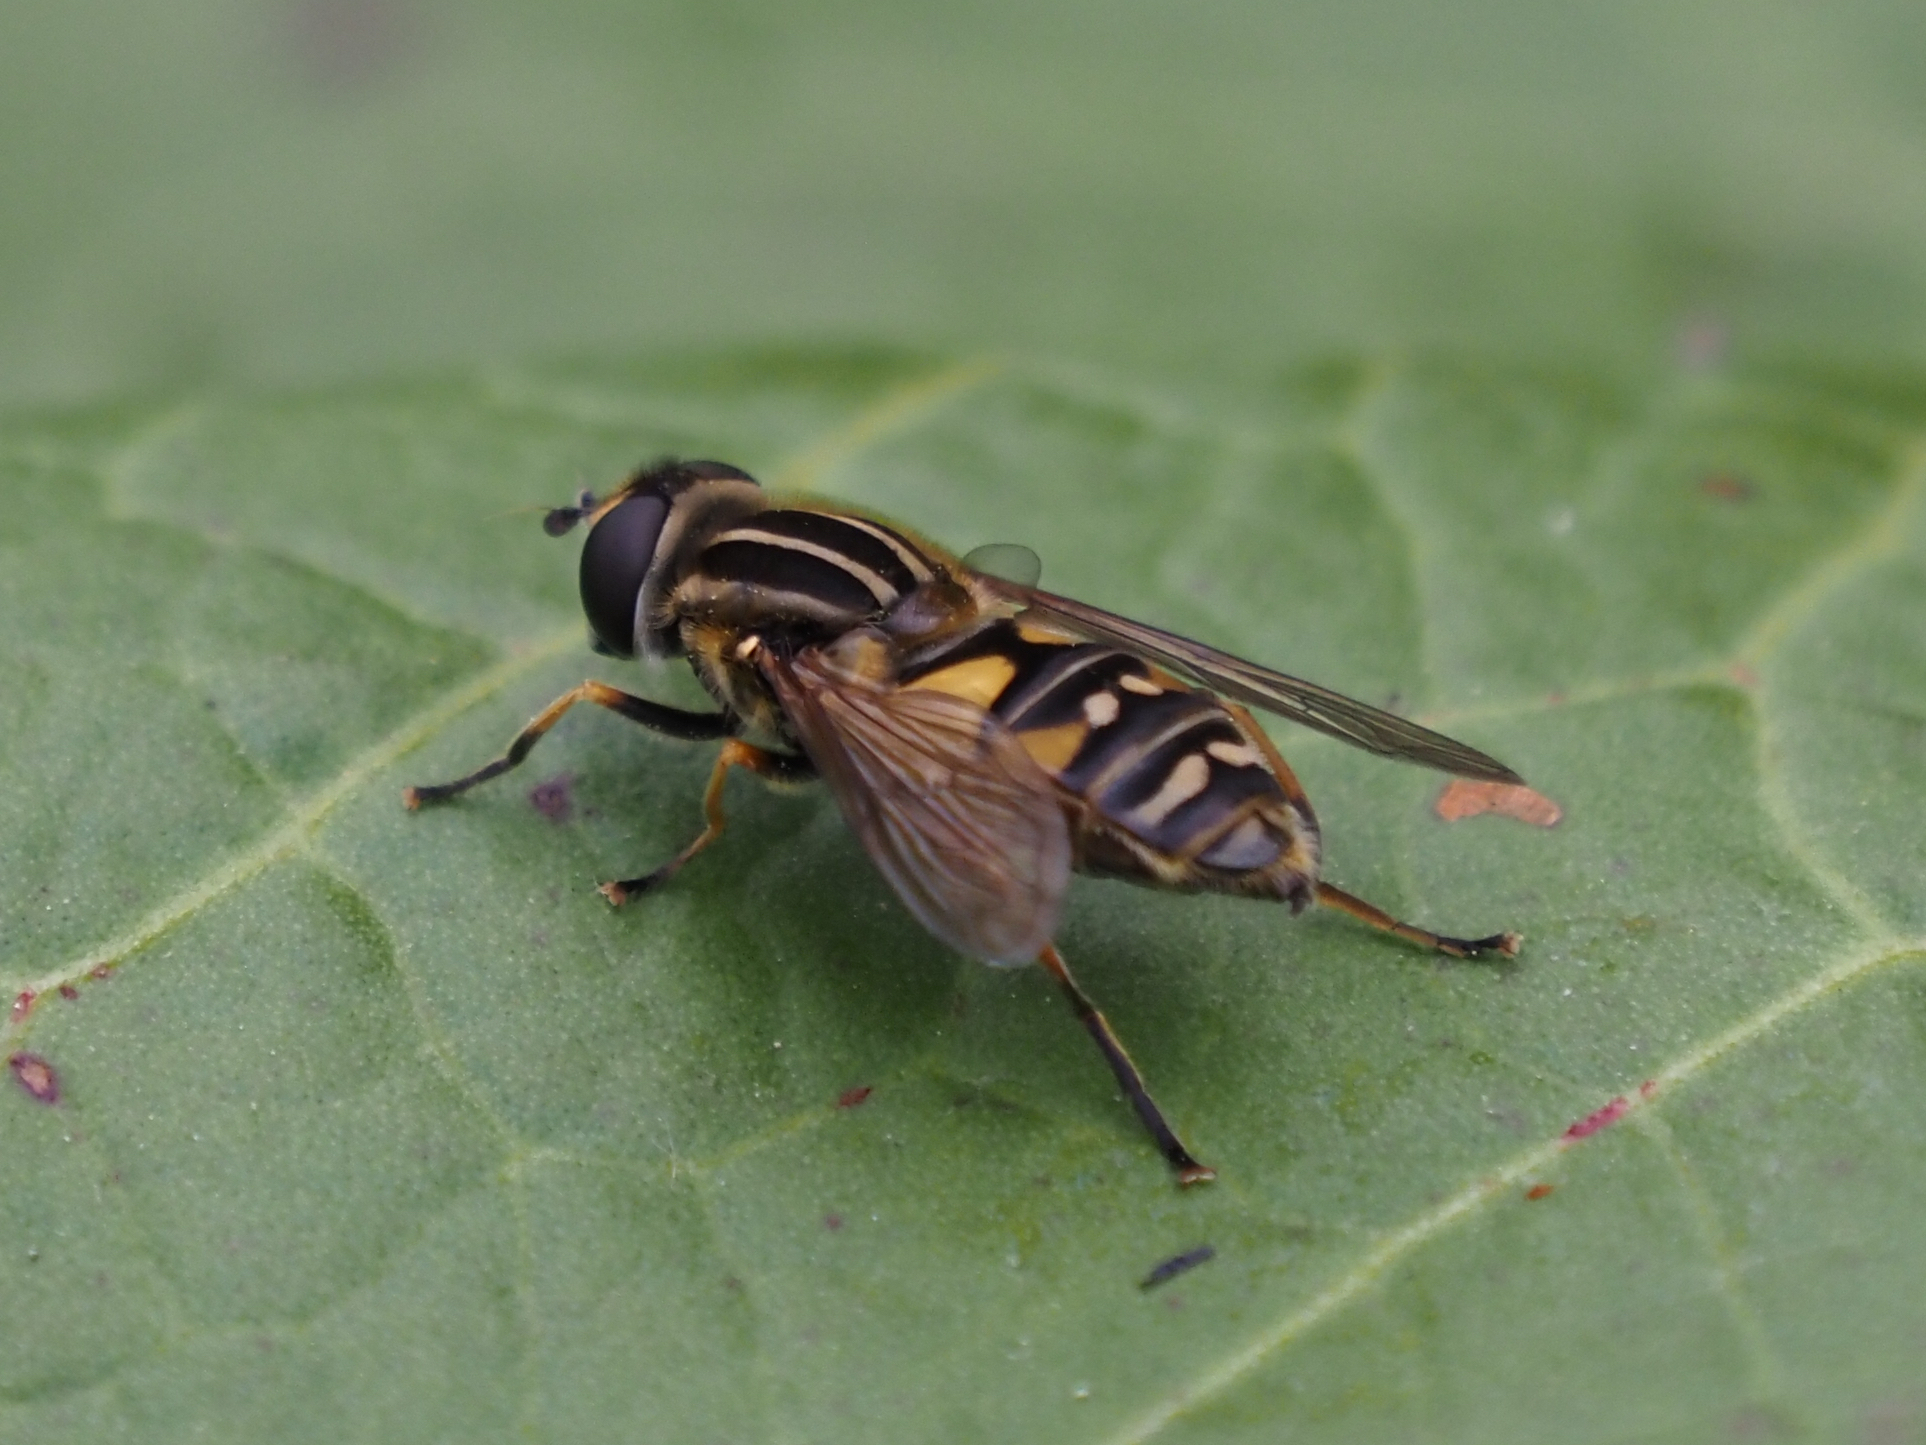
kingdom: Animalia
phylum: Arthropoda
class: Insecta
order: Diptera
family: Syrphidae
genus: Helophilus
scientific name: Helophilus pendulus
